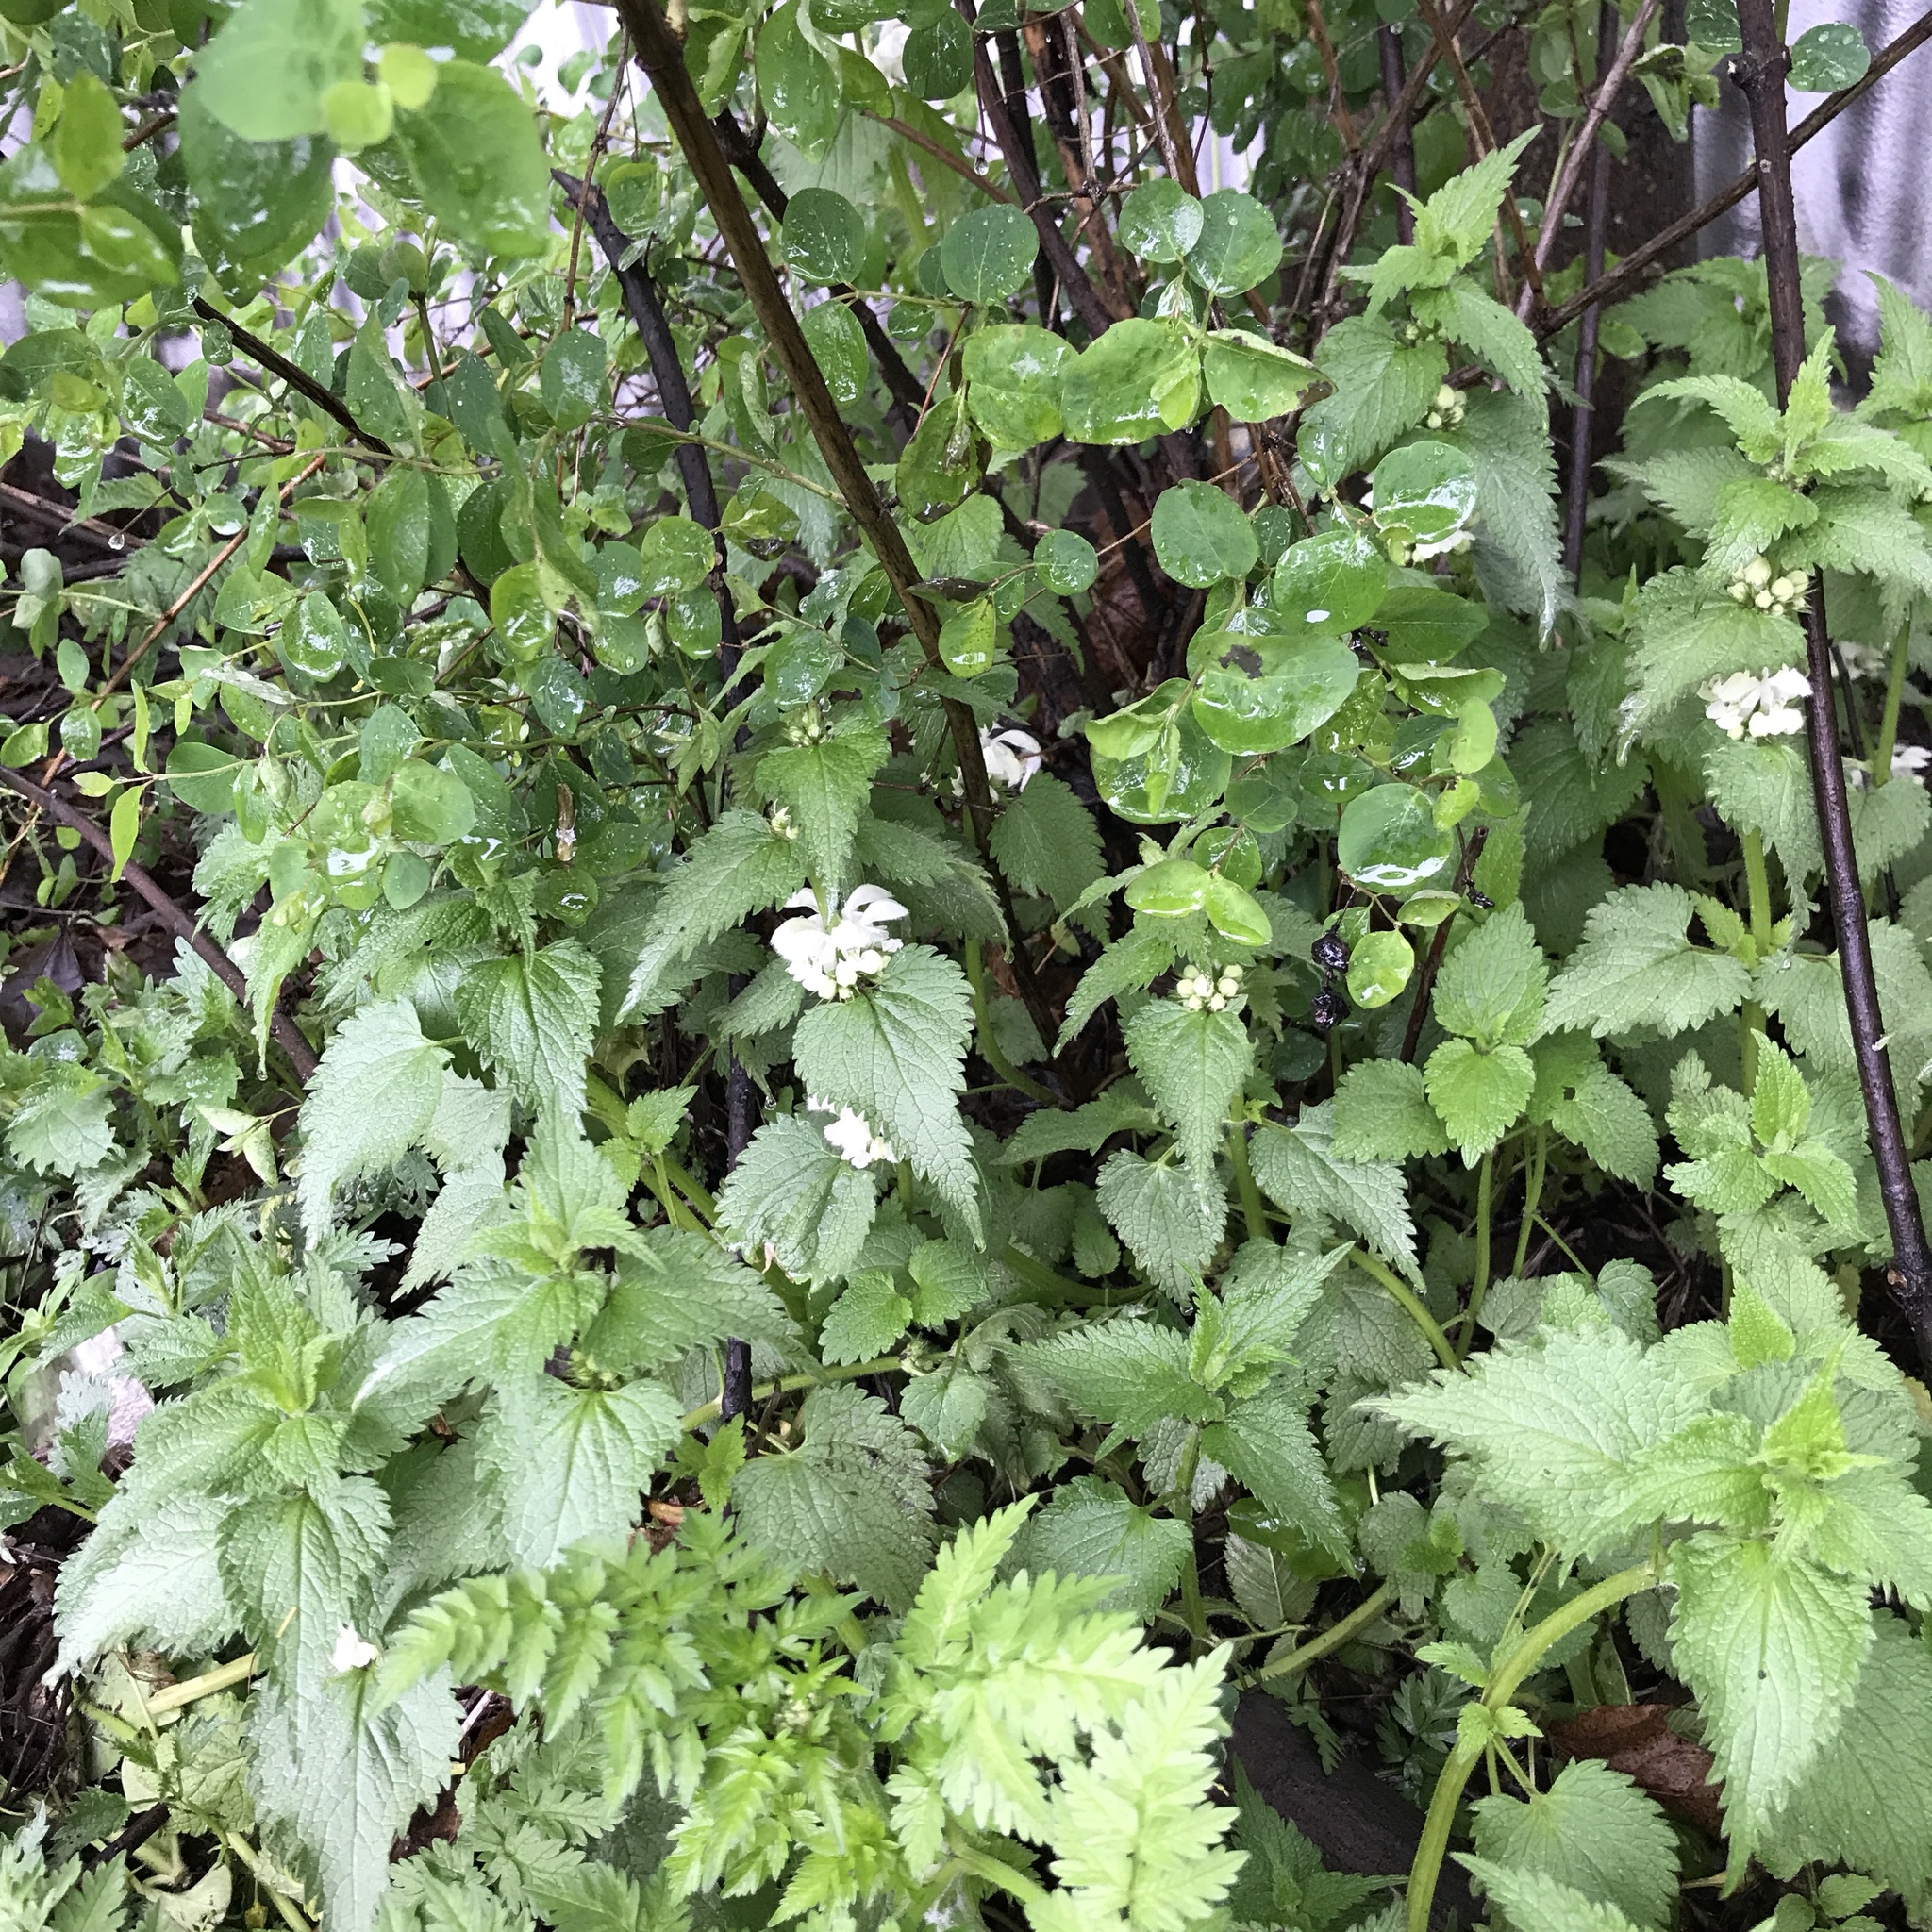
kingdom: Plantae
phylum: Tracheophyta
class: Magnoliopsida
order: Lamiales
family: Lamiaceae
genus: Lamium
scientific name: Lamium album
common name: White dead-nettle
